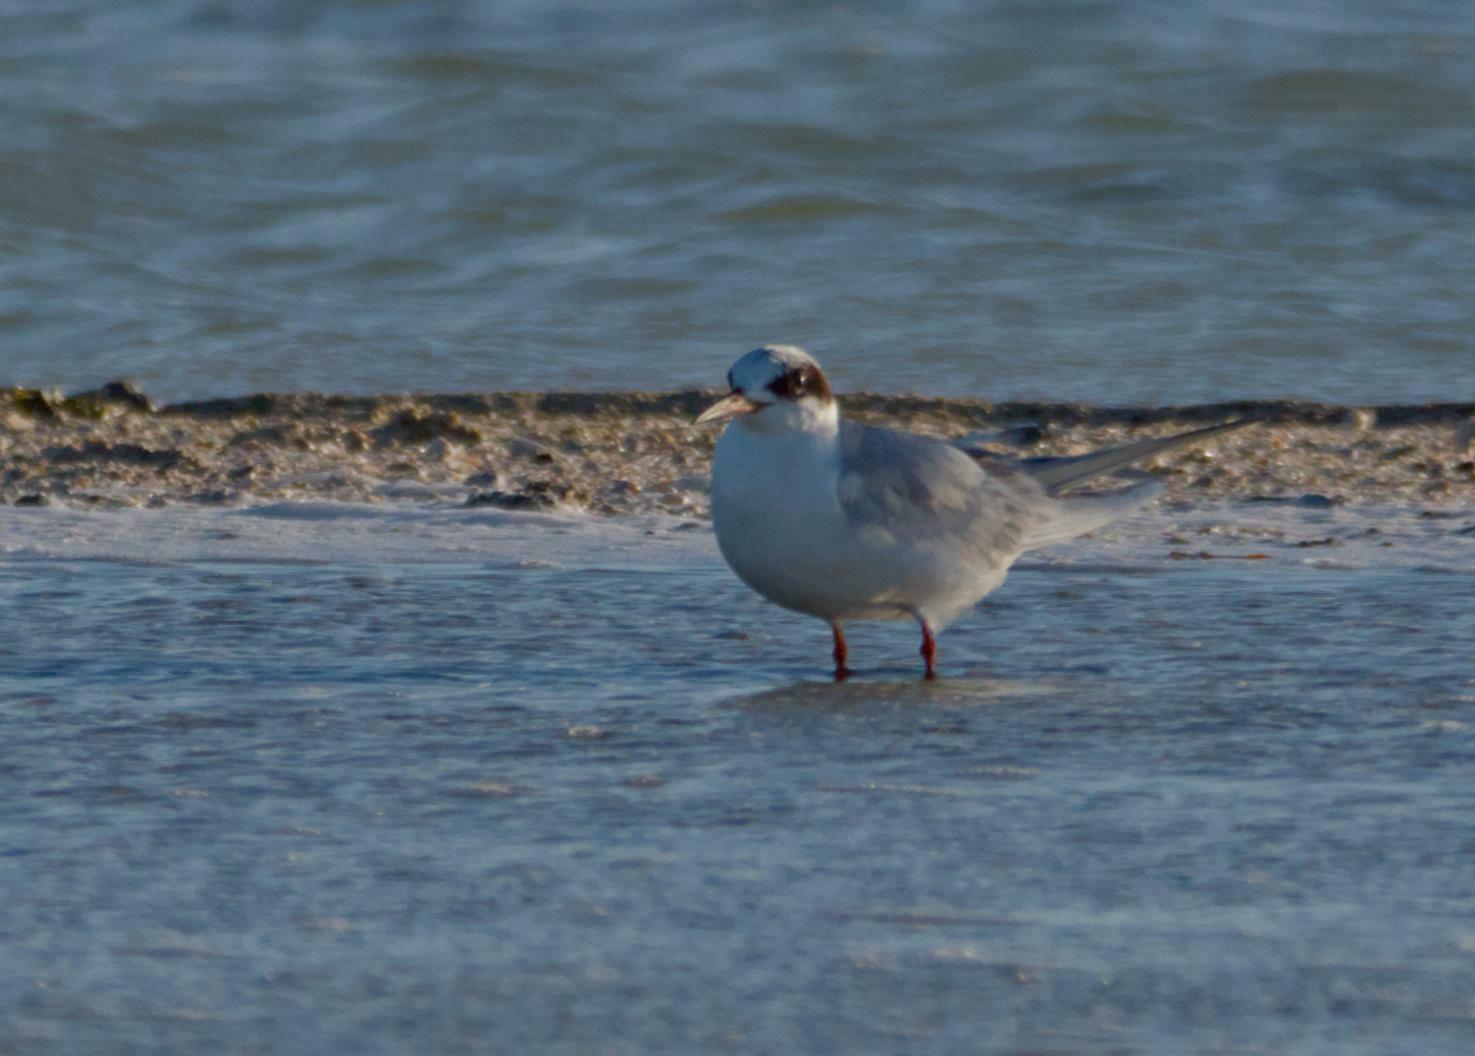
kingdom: Animalia
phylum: Chordata
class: Aves
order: Charadriiformes
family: Laridae
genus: Sterna
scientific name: Sterna forsteri
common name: Forster's tern
